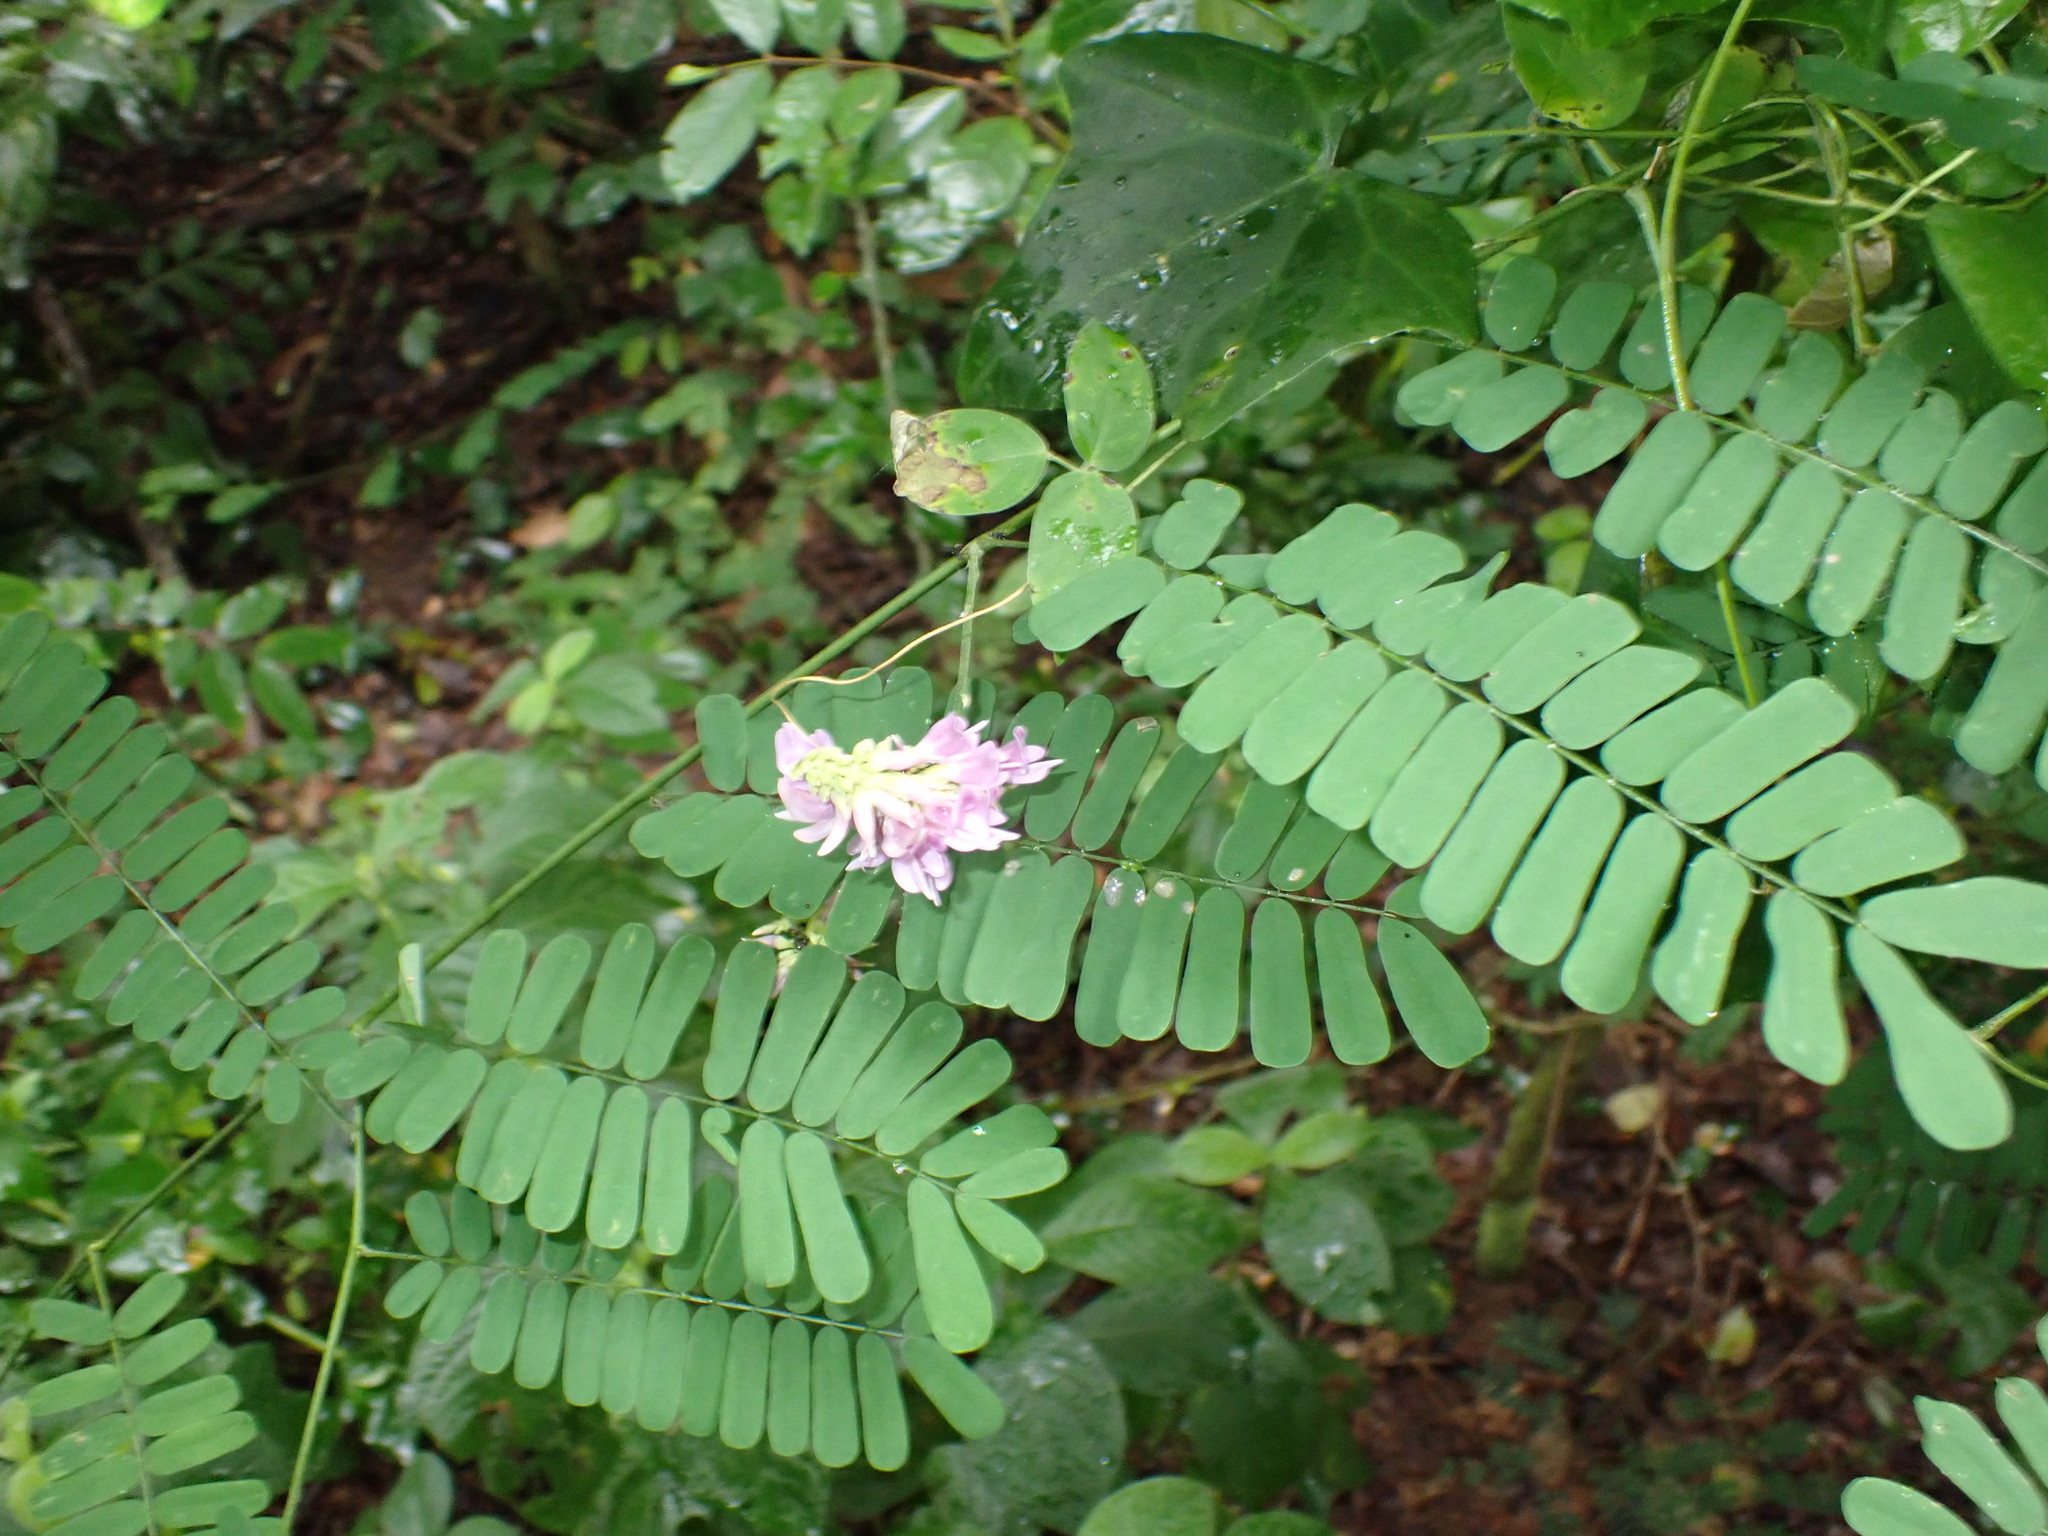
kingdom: Plantae
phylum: Tracheophyta
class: Magnoliopsida
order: Fabales
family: Fabaceae
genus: Abrus
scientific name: Abrus precatorius
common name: Rosarypea
